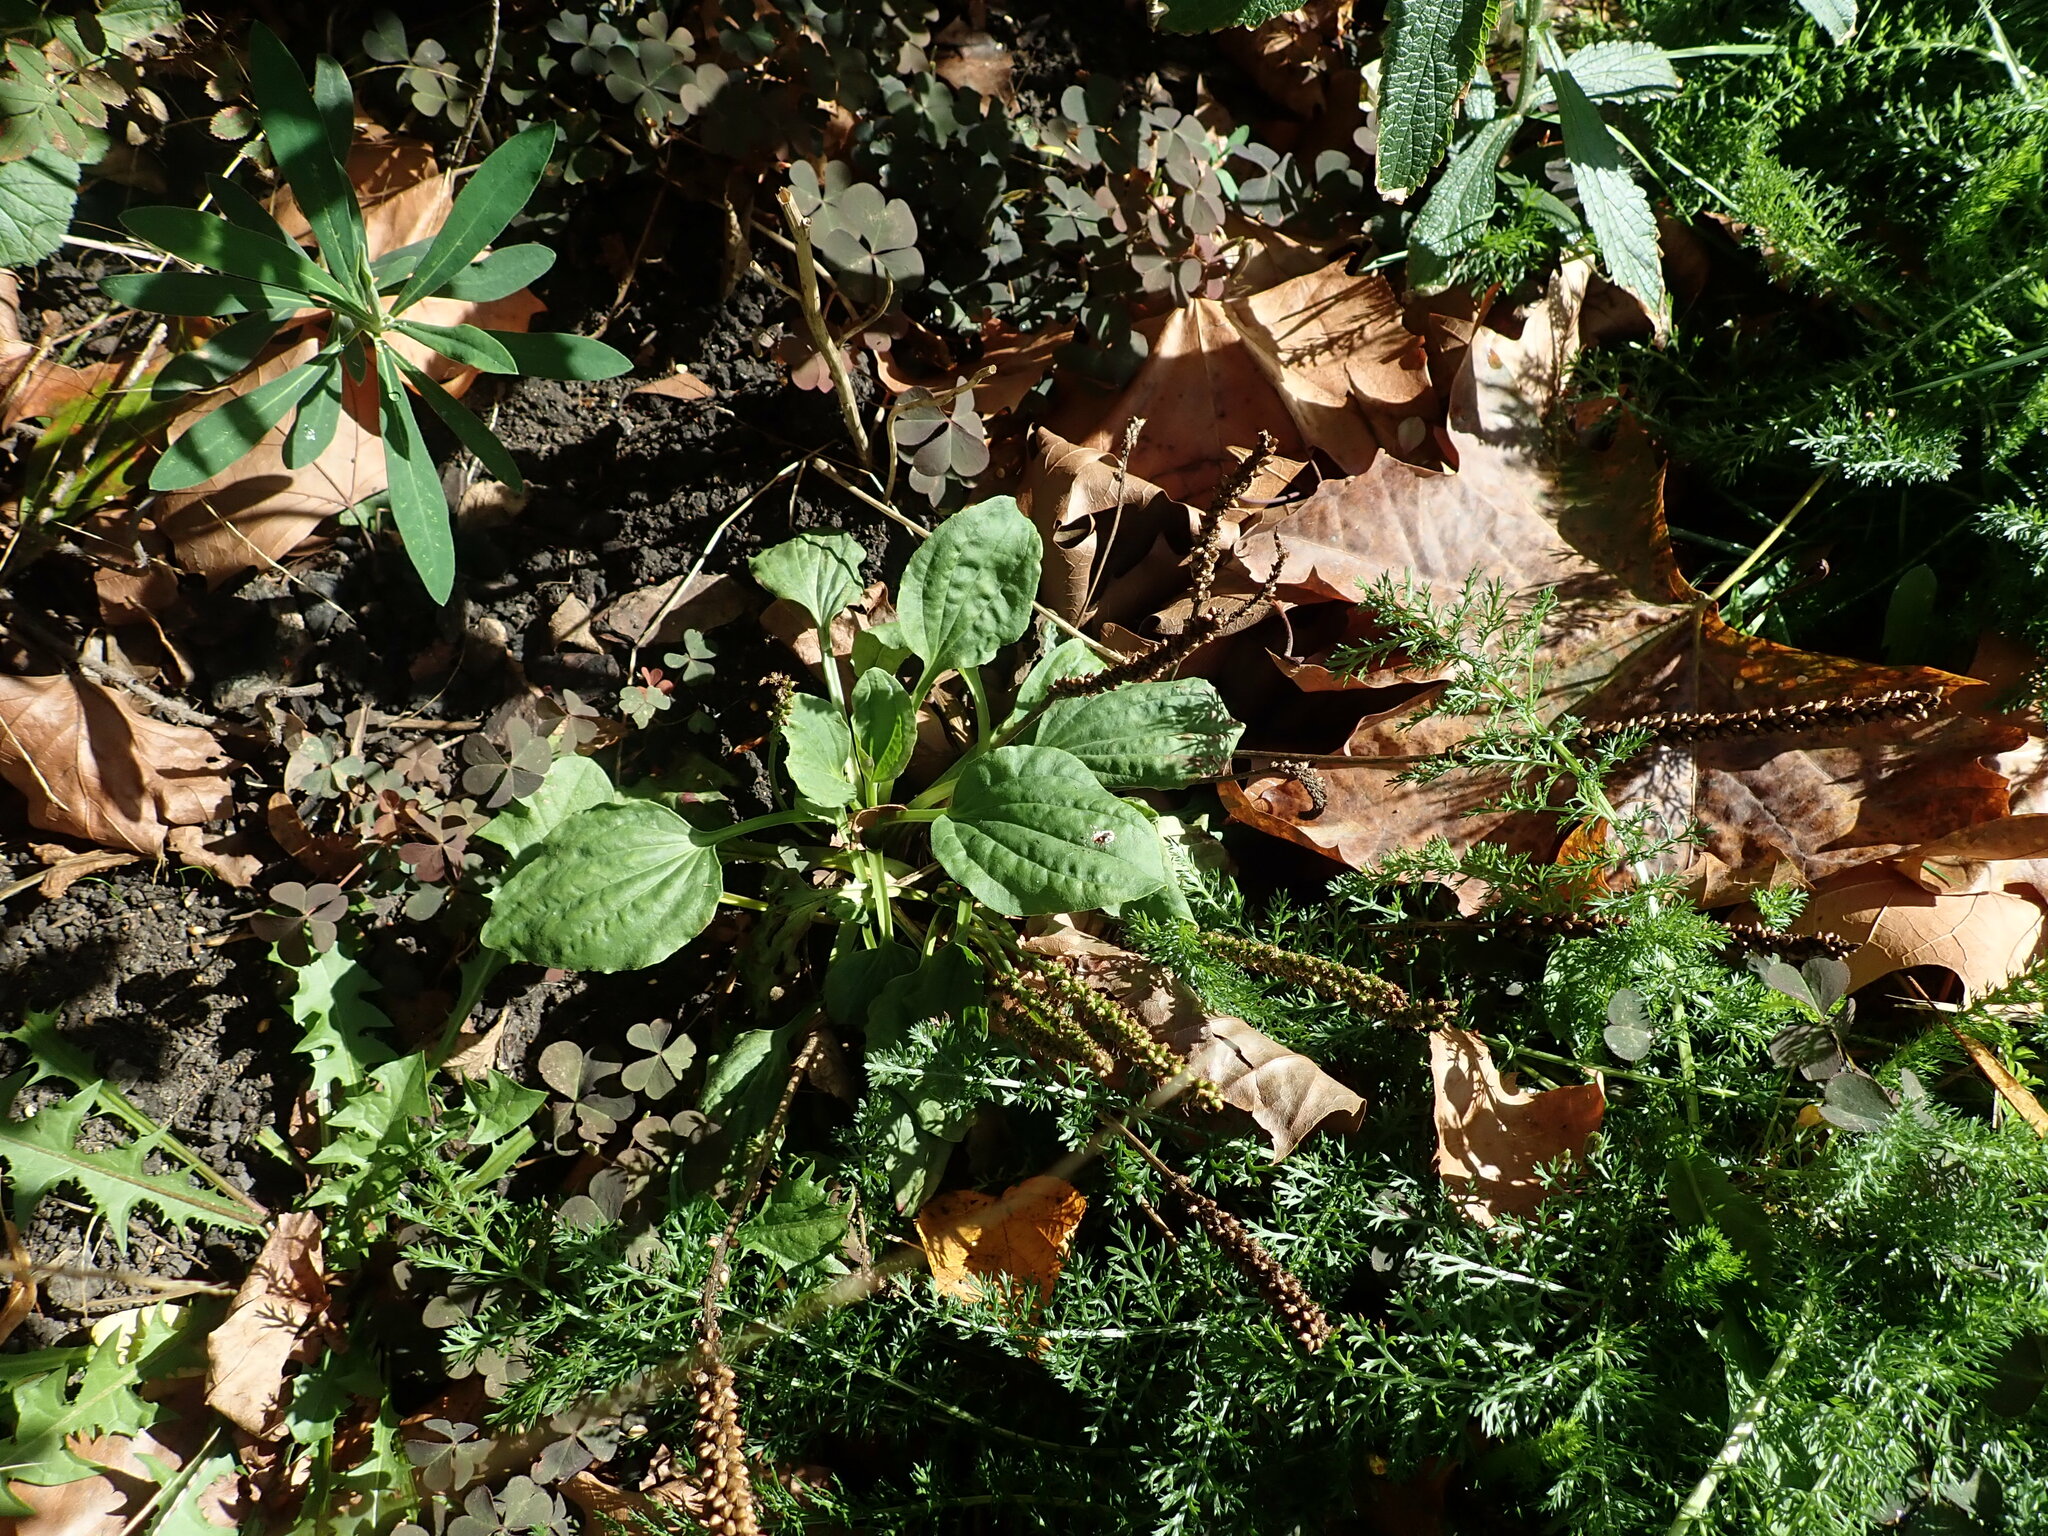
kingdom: Plantae
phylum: Tracheophyta
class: Magnoliopsida
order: Lamiales
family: Plantaginaceae
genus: Plantago
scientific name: Plantago major
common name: Common plantain
